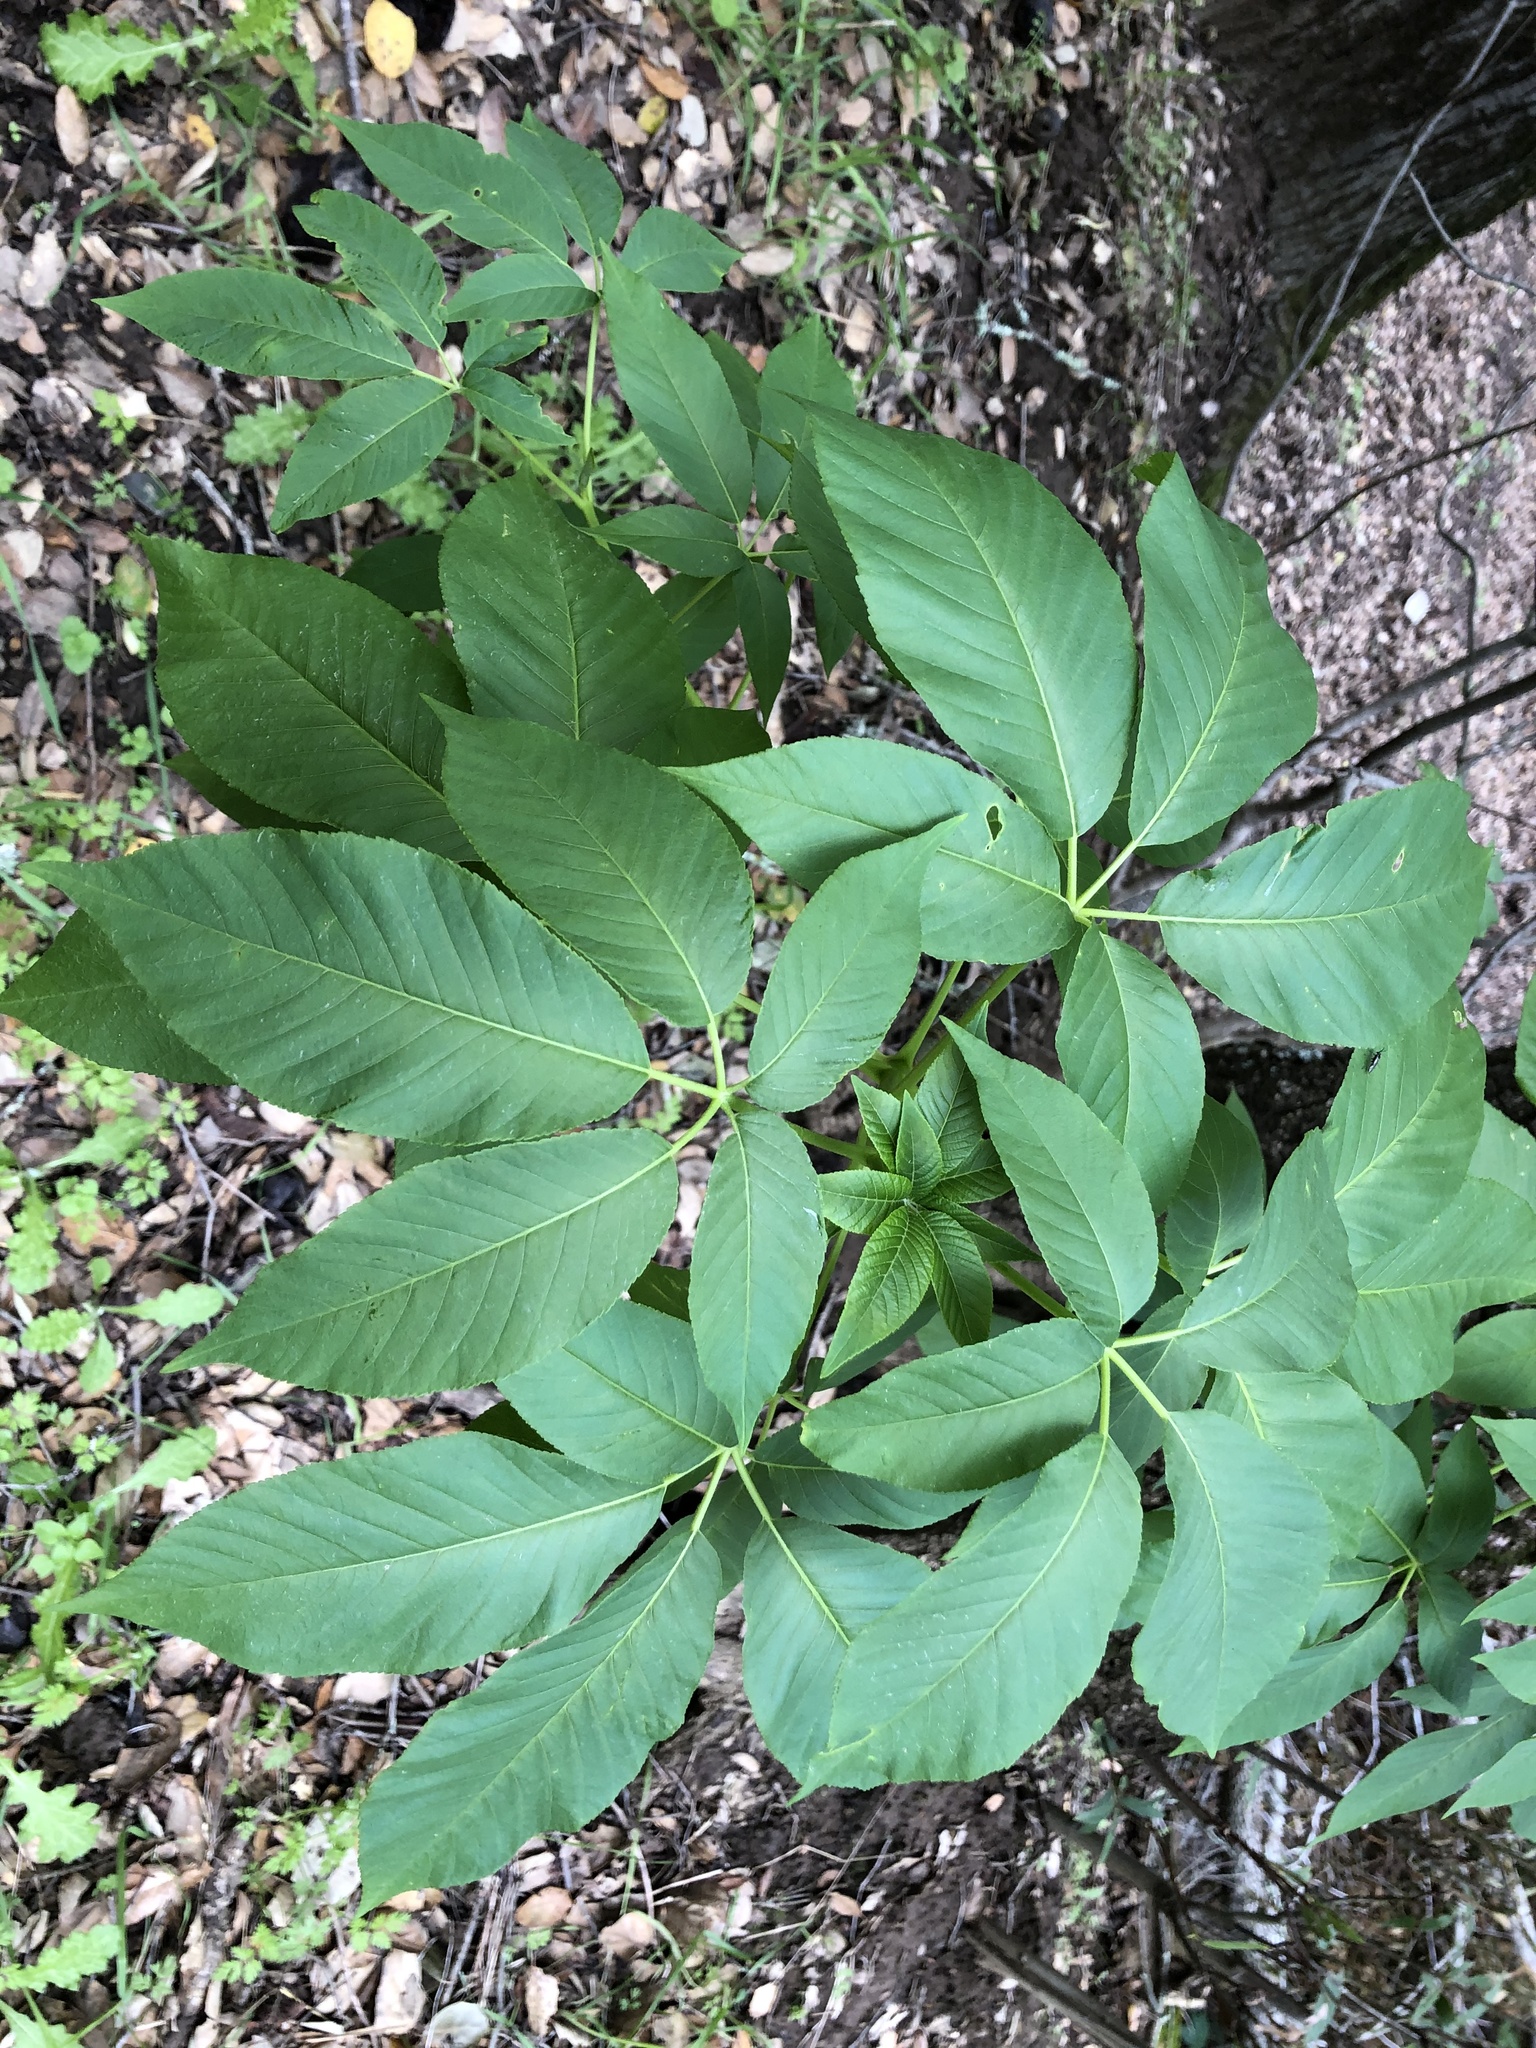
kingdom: Plantae
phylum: Tracheophyta
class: Magnoliopsida
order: Sapindales
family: Sapindaceae
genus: Aesculus
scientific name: Aesculus californica
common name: California buckeye
